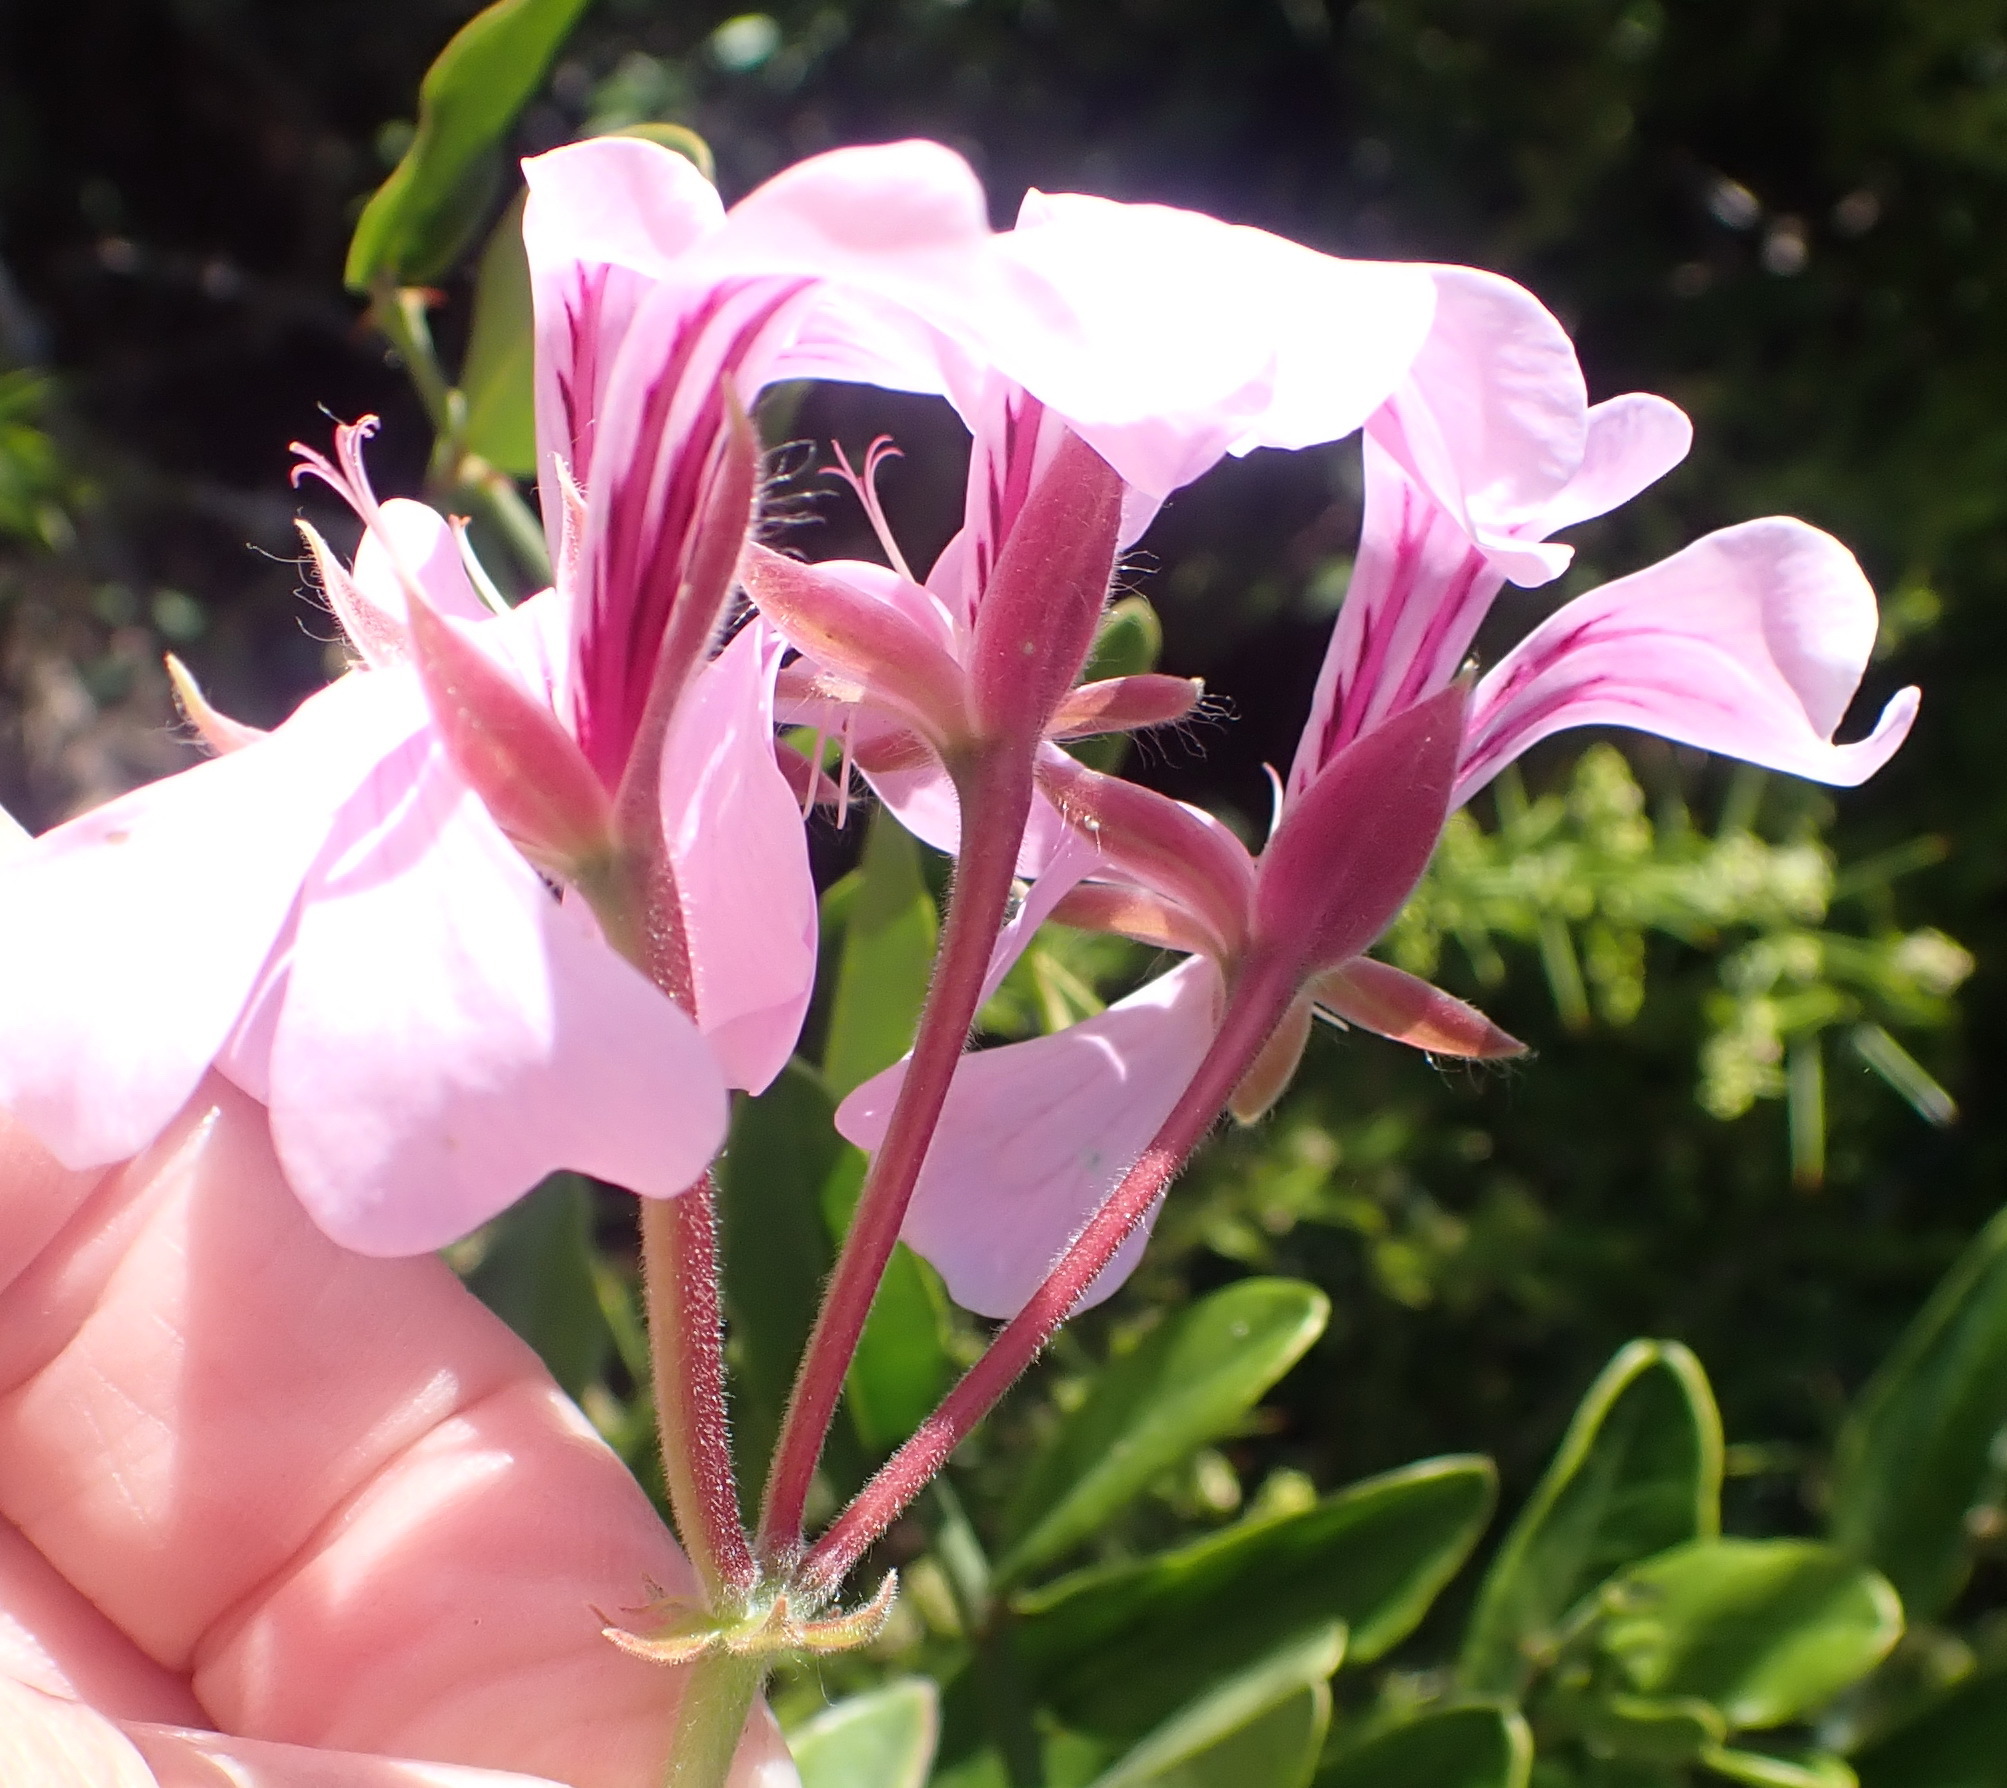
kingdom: Plantae
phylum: Tracheophyta
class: Magnoliopsida
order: Geraniales
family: Geraniaceae
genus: Pelargonium
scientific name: Pelargonium peltatum
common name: Ivyleaf geranium
